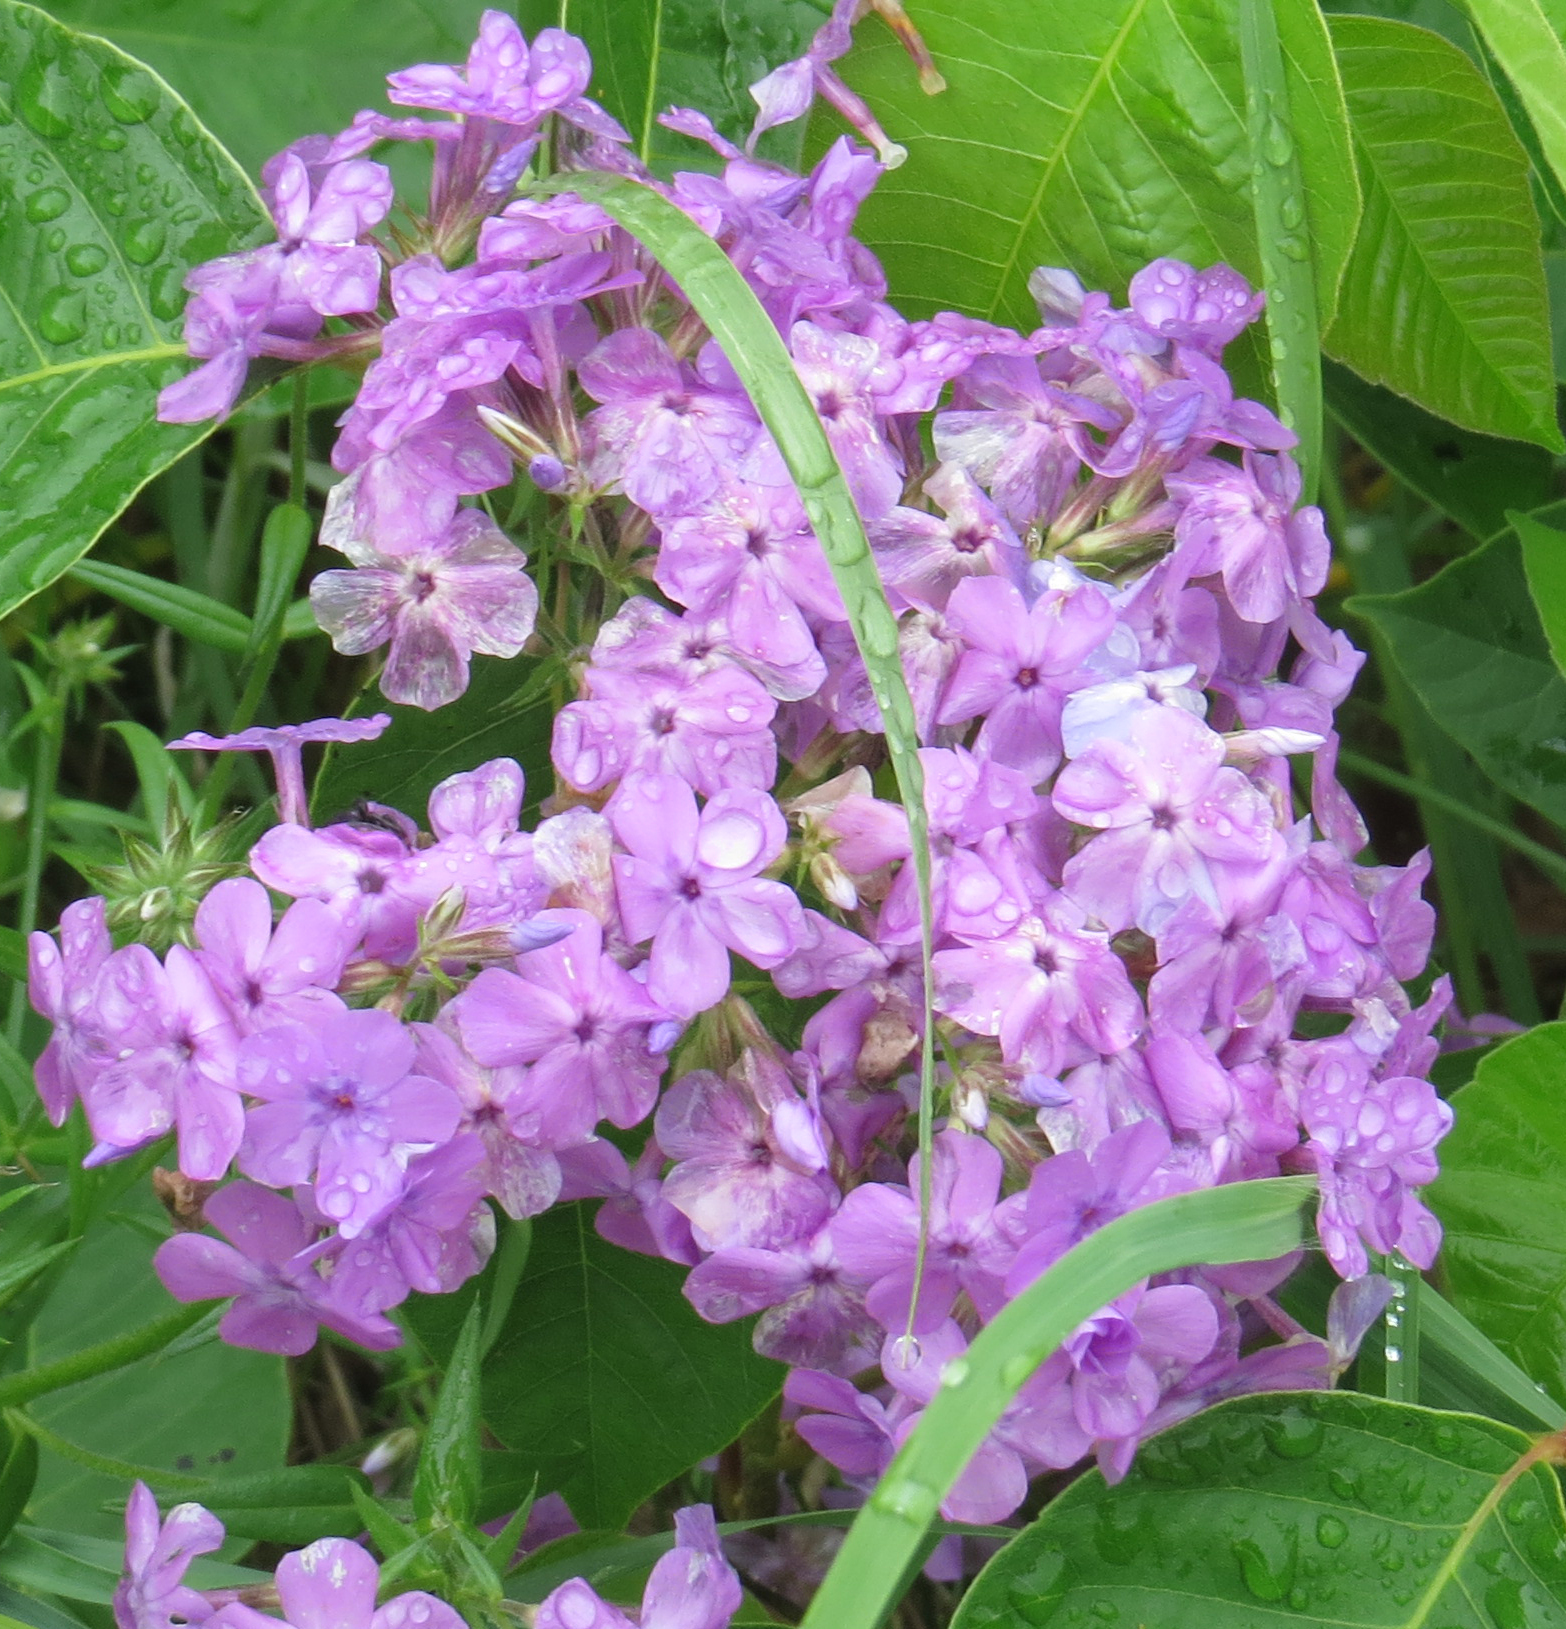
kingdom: Plantae
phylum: Tracheophyta
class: Magnoliopsida
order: Ericales
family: Polemoniaceae
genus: Phlox
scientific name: Phlox pilosa
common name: Prairie phlox
